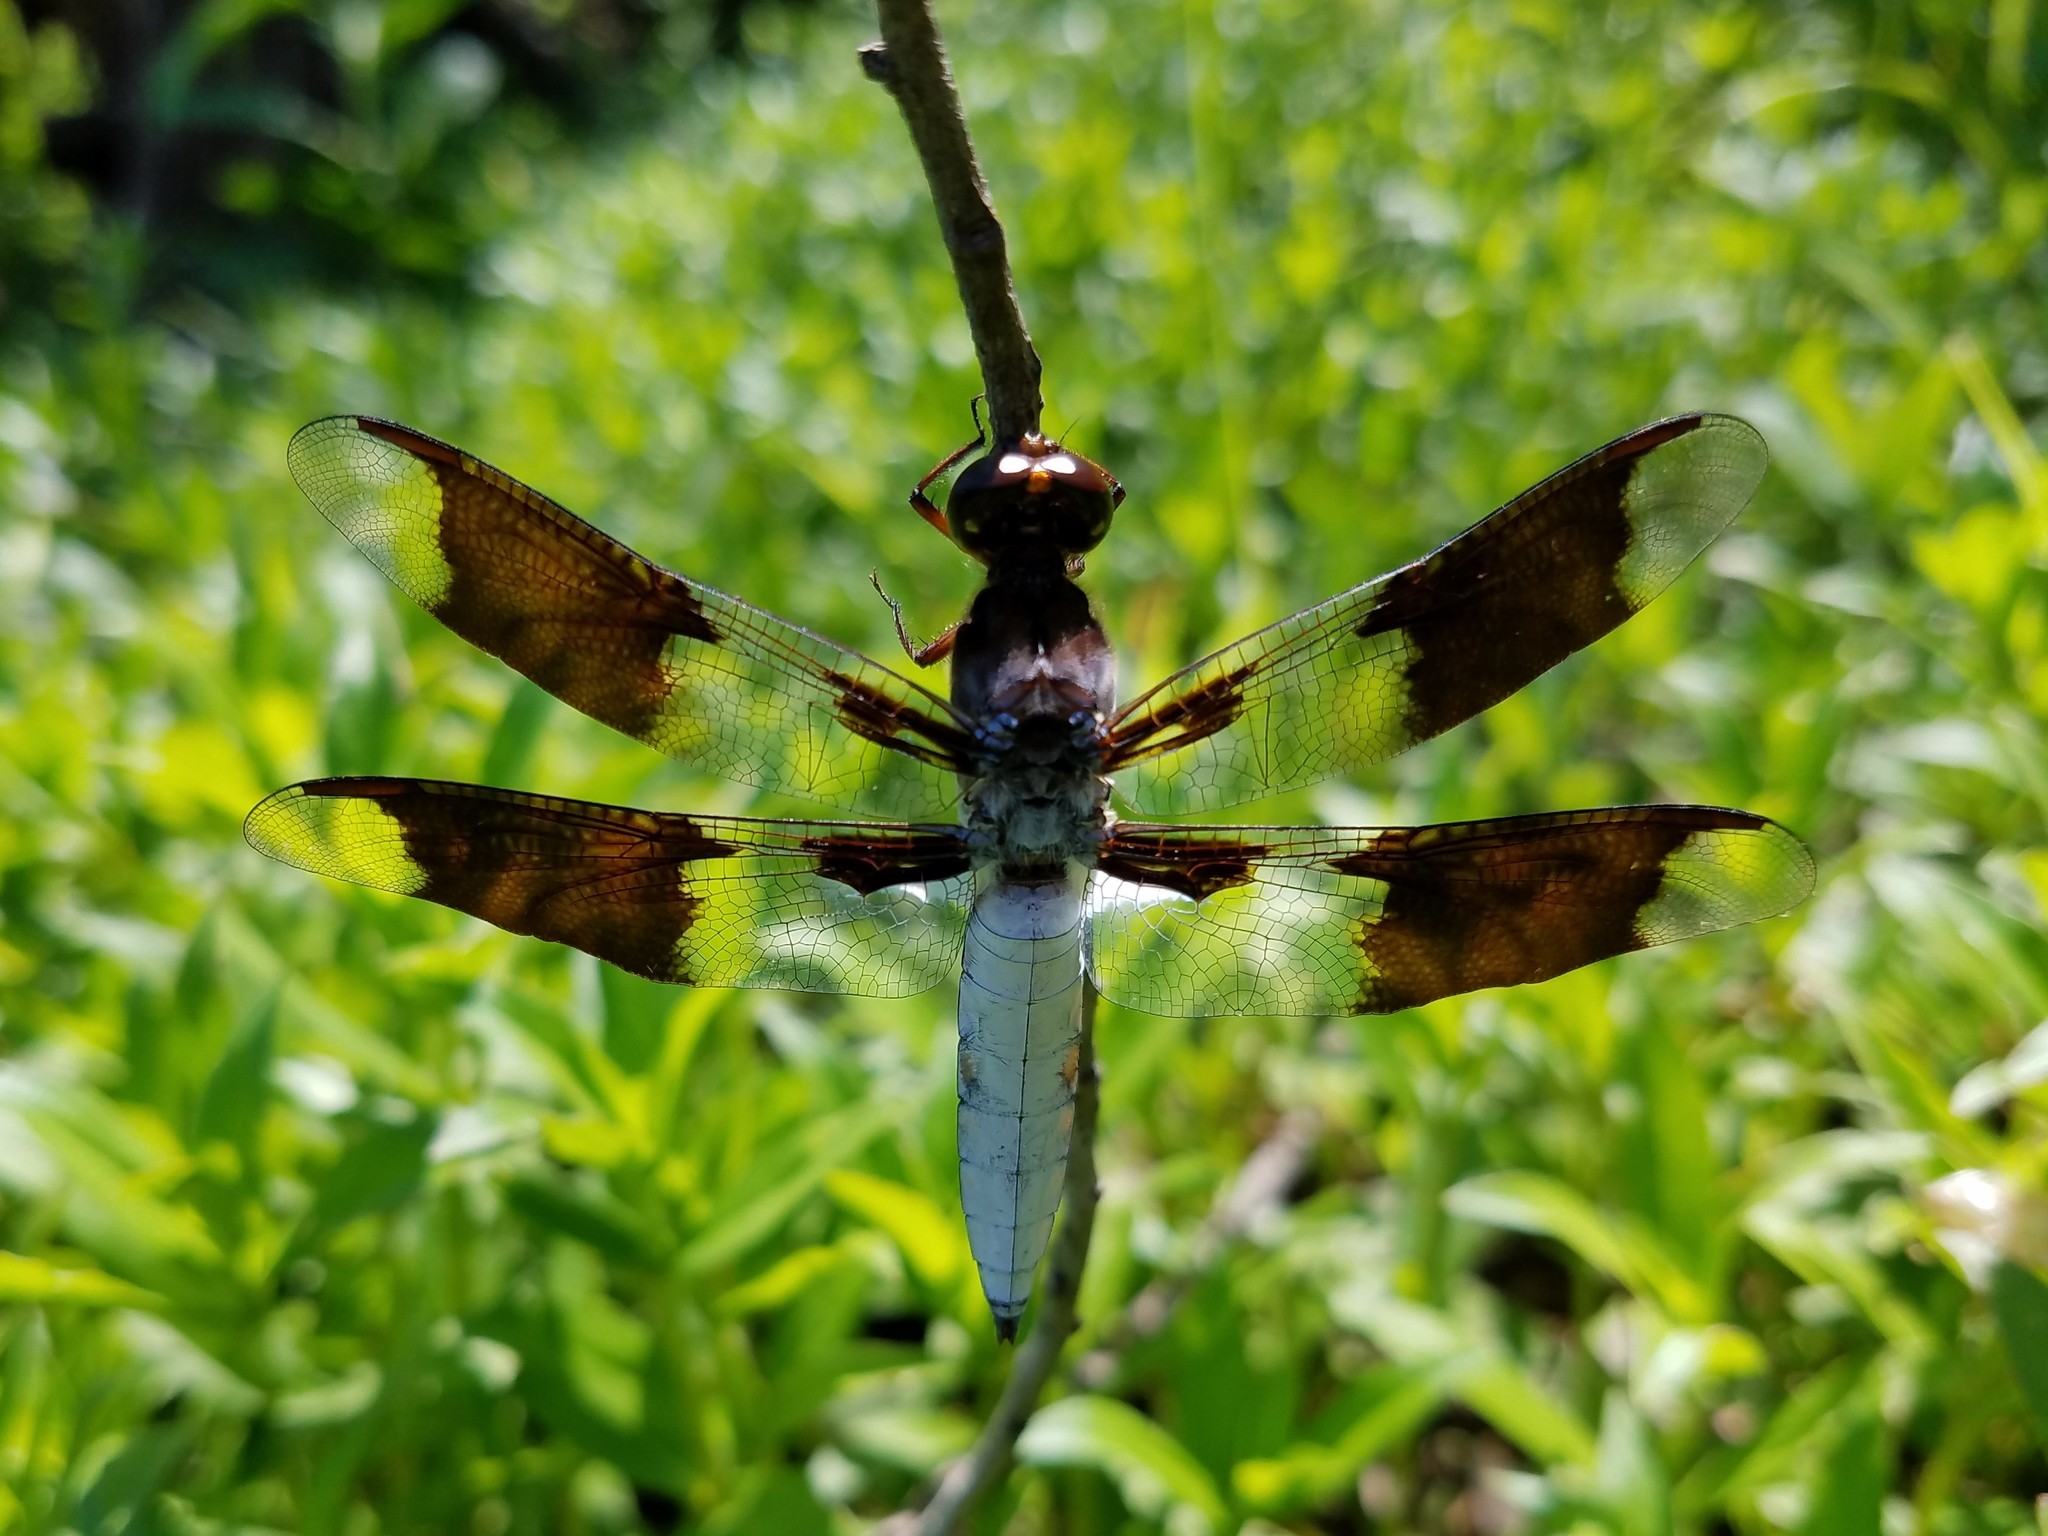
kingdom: Animalia
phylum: Arthropoda
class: Insecta
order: Odonata
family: Libellulidae
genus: Plathemis
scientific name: Plathemis lydia
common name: Common whitetail
